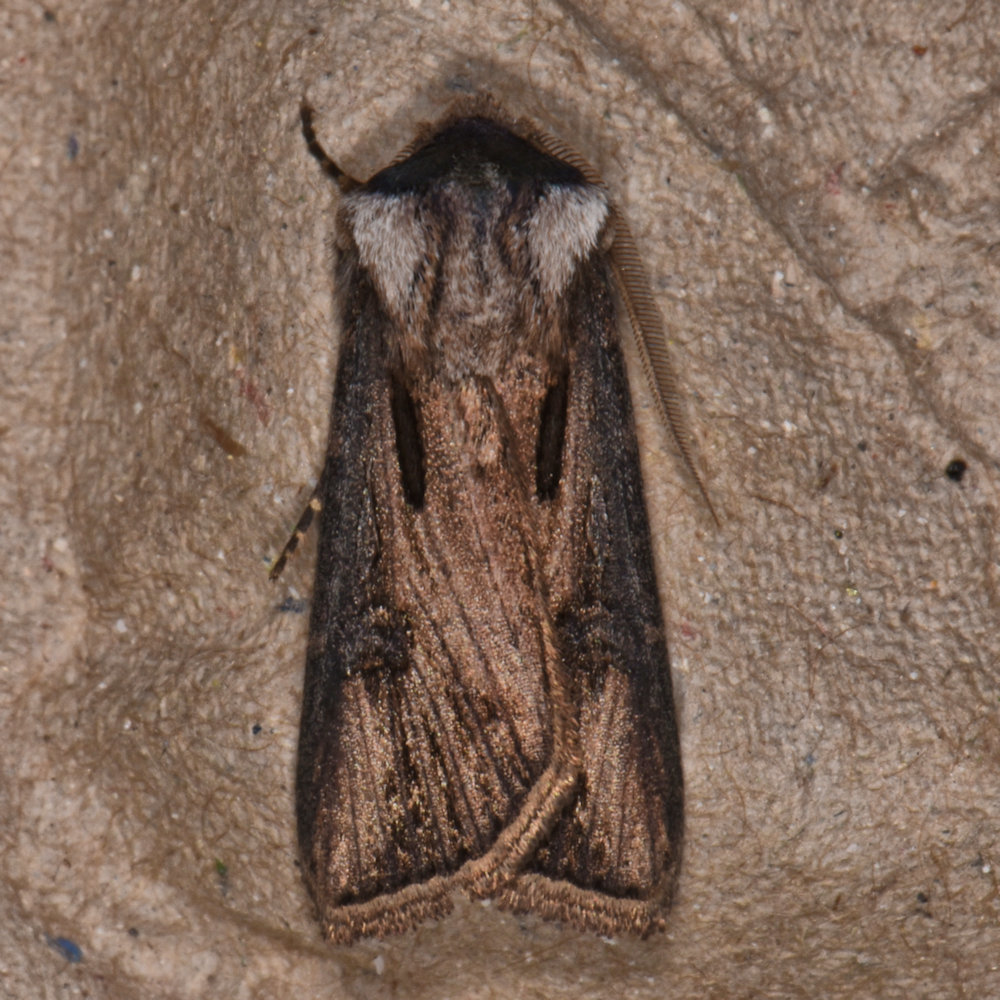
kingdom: Animalia
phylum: Arthropoda
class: Insecta
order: Lepidoptera
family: Noctuidae
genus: Agrotis
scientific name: Agrotis venerabilis
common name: Venerable dart
